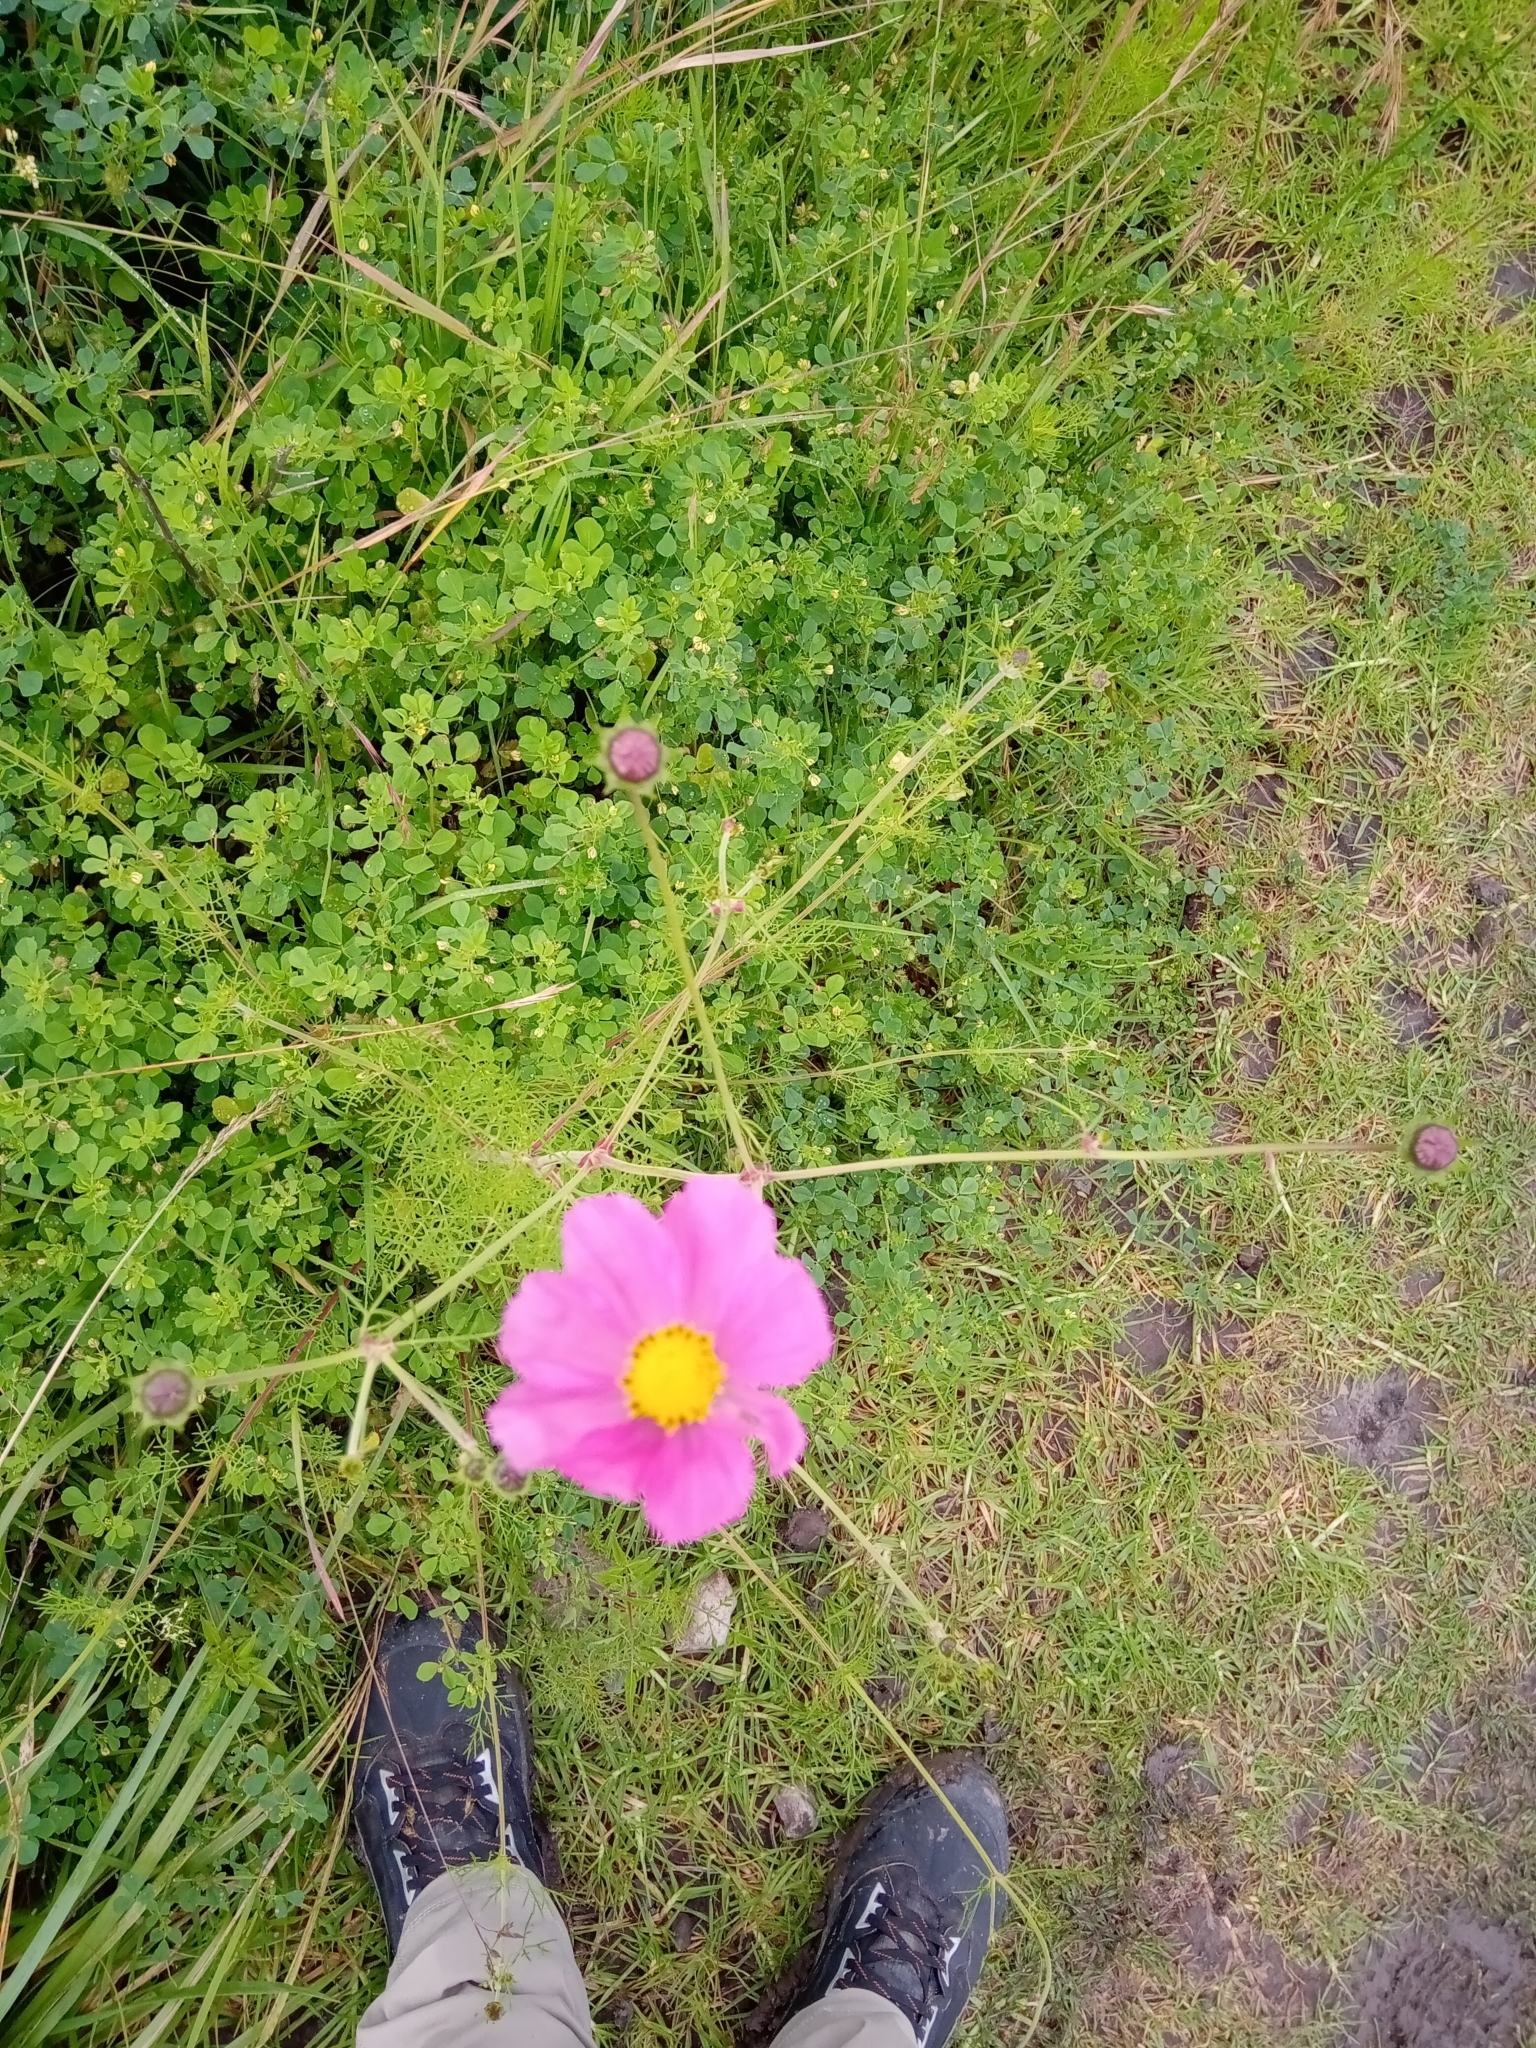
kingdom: Plantae
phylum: Tracheophyta
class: Magnoliopsida
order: Asterales
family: Asteraceae
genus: Cosmos
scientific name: Cosmos bipinnatus
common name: Garden cosmos
